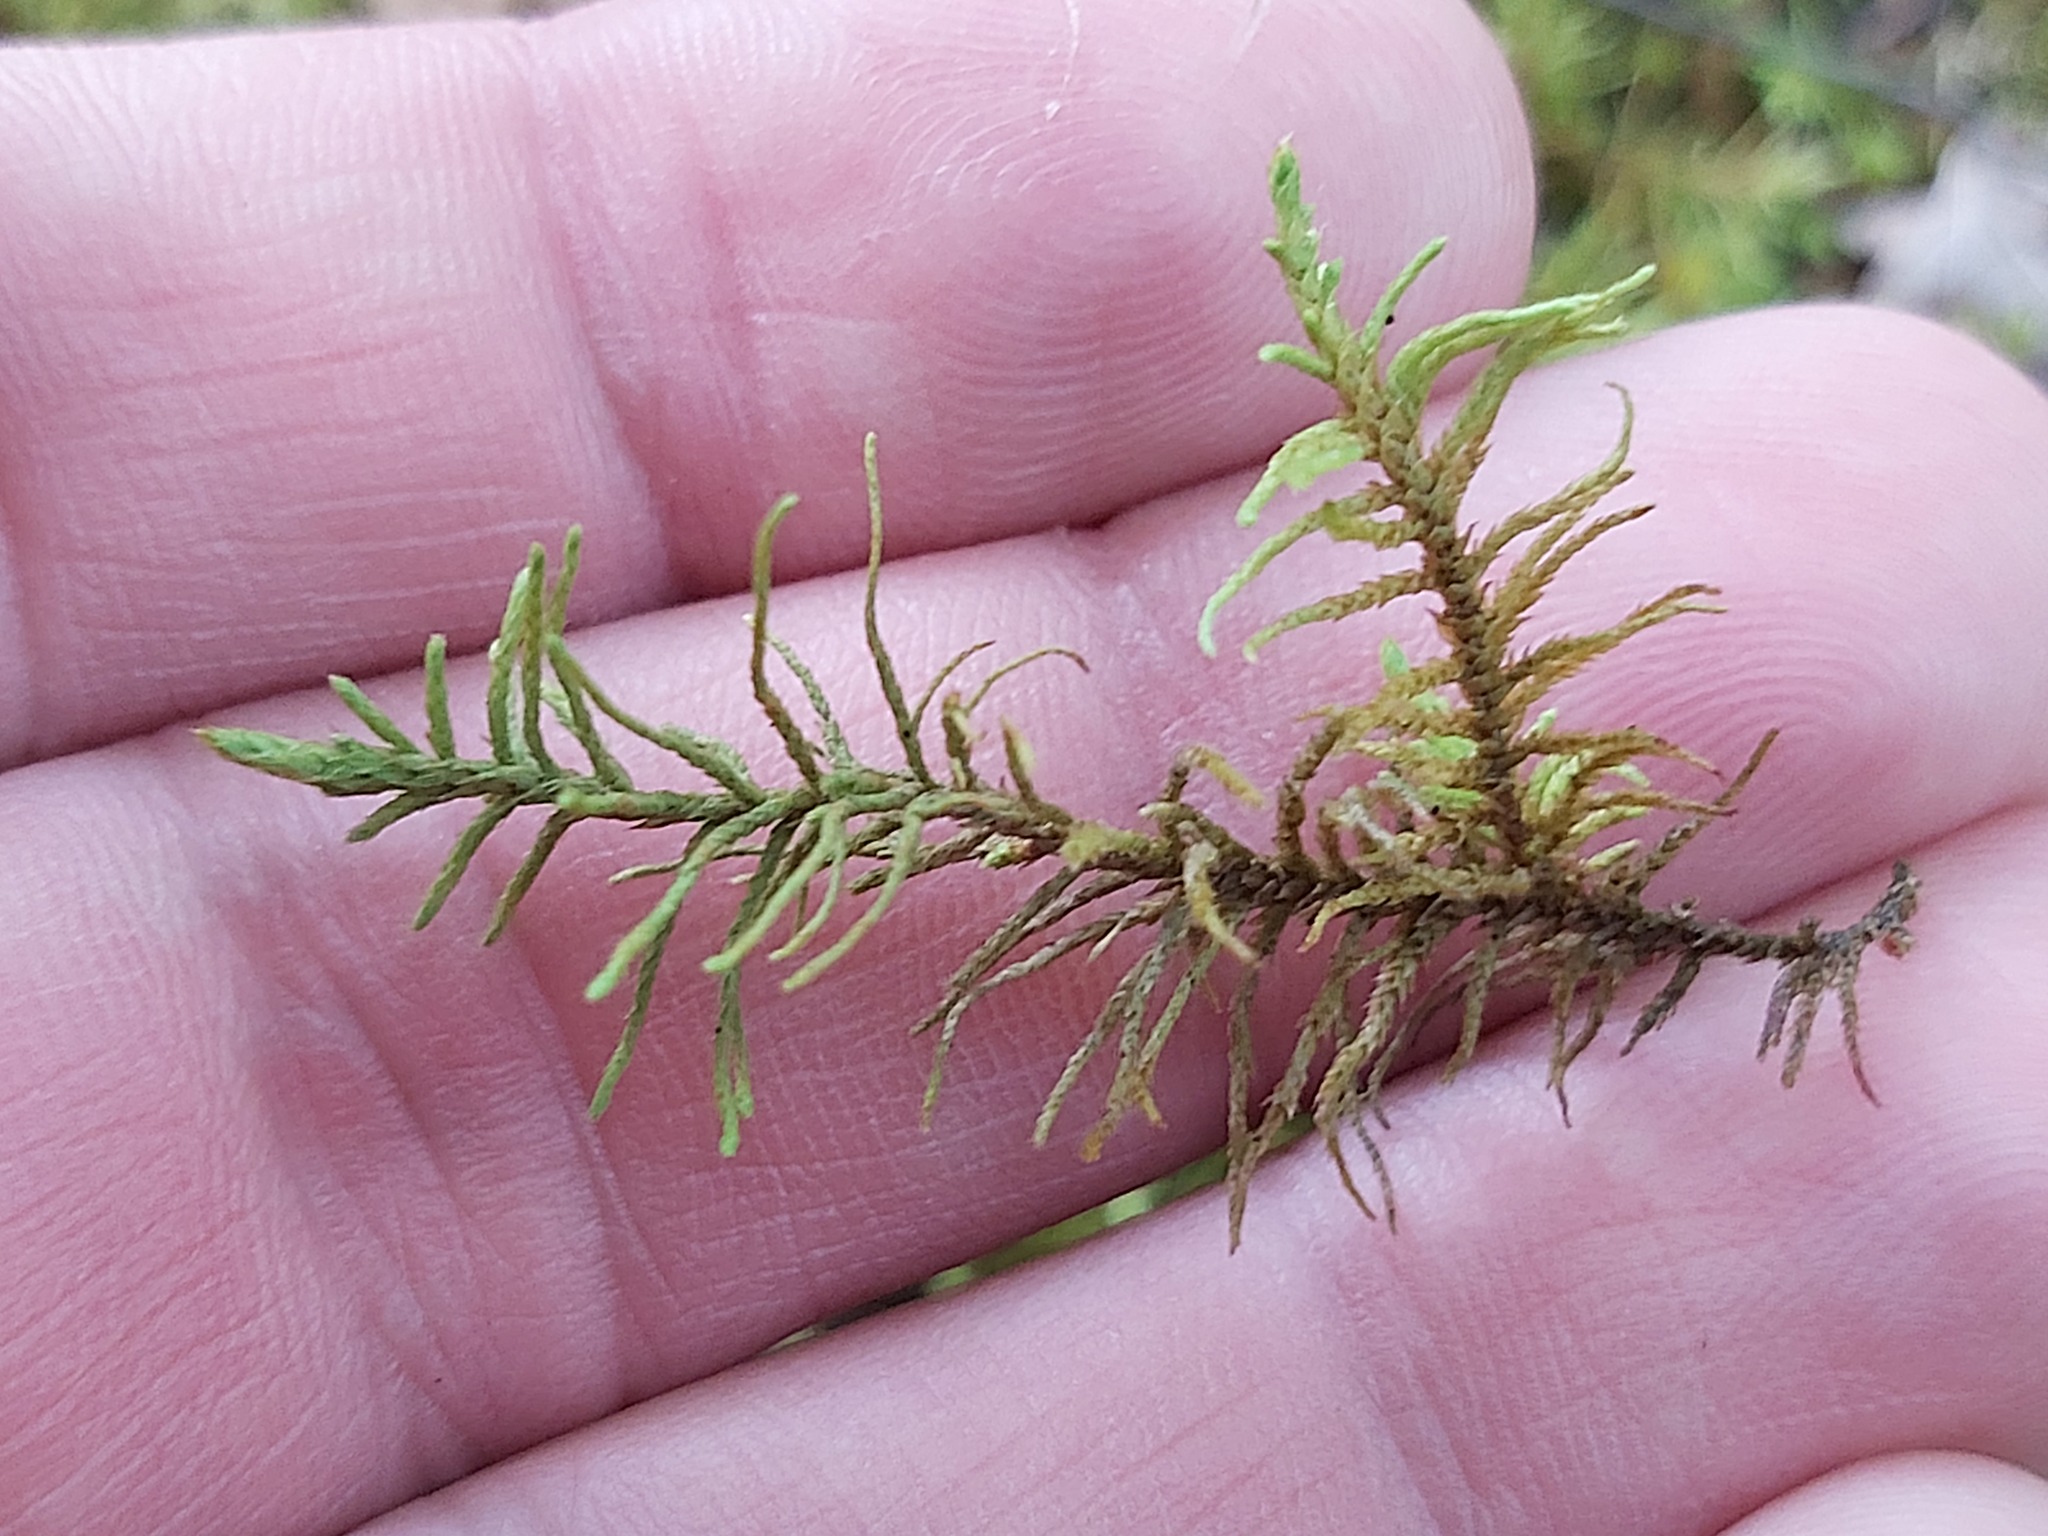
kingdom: Plantae
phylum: Bryophyta
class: Bryopsida
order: Hypnales
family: Thuidiaceae
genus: Abietinella
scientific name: Abietinella abietina
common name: Wiry fern moss
